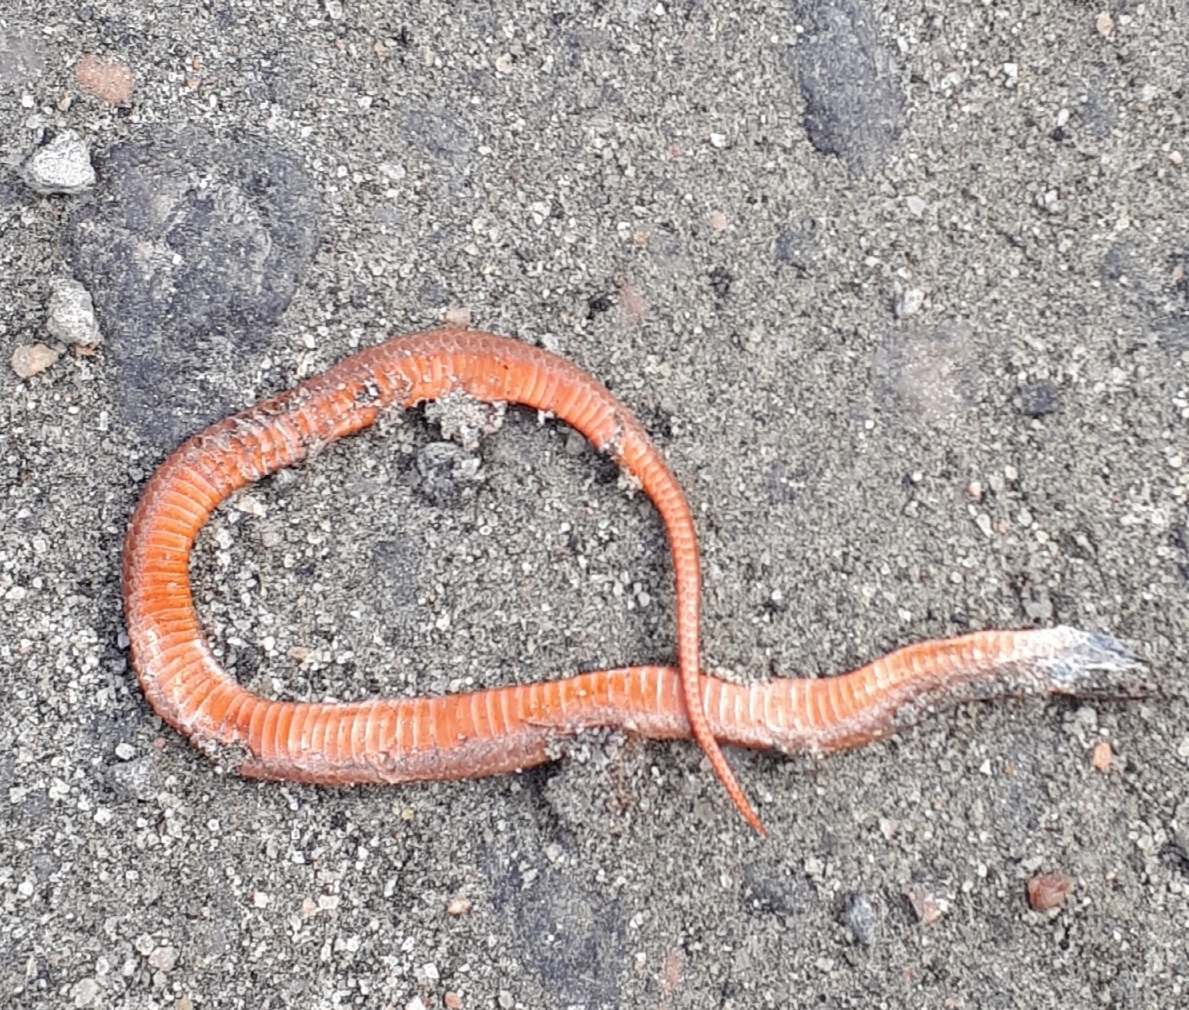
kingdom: Animalia
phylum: Chordata
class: Squamata
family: Colubridae
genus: Storeria
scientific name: Storeria occipitomaculata
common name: Redbelly snake
